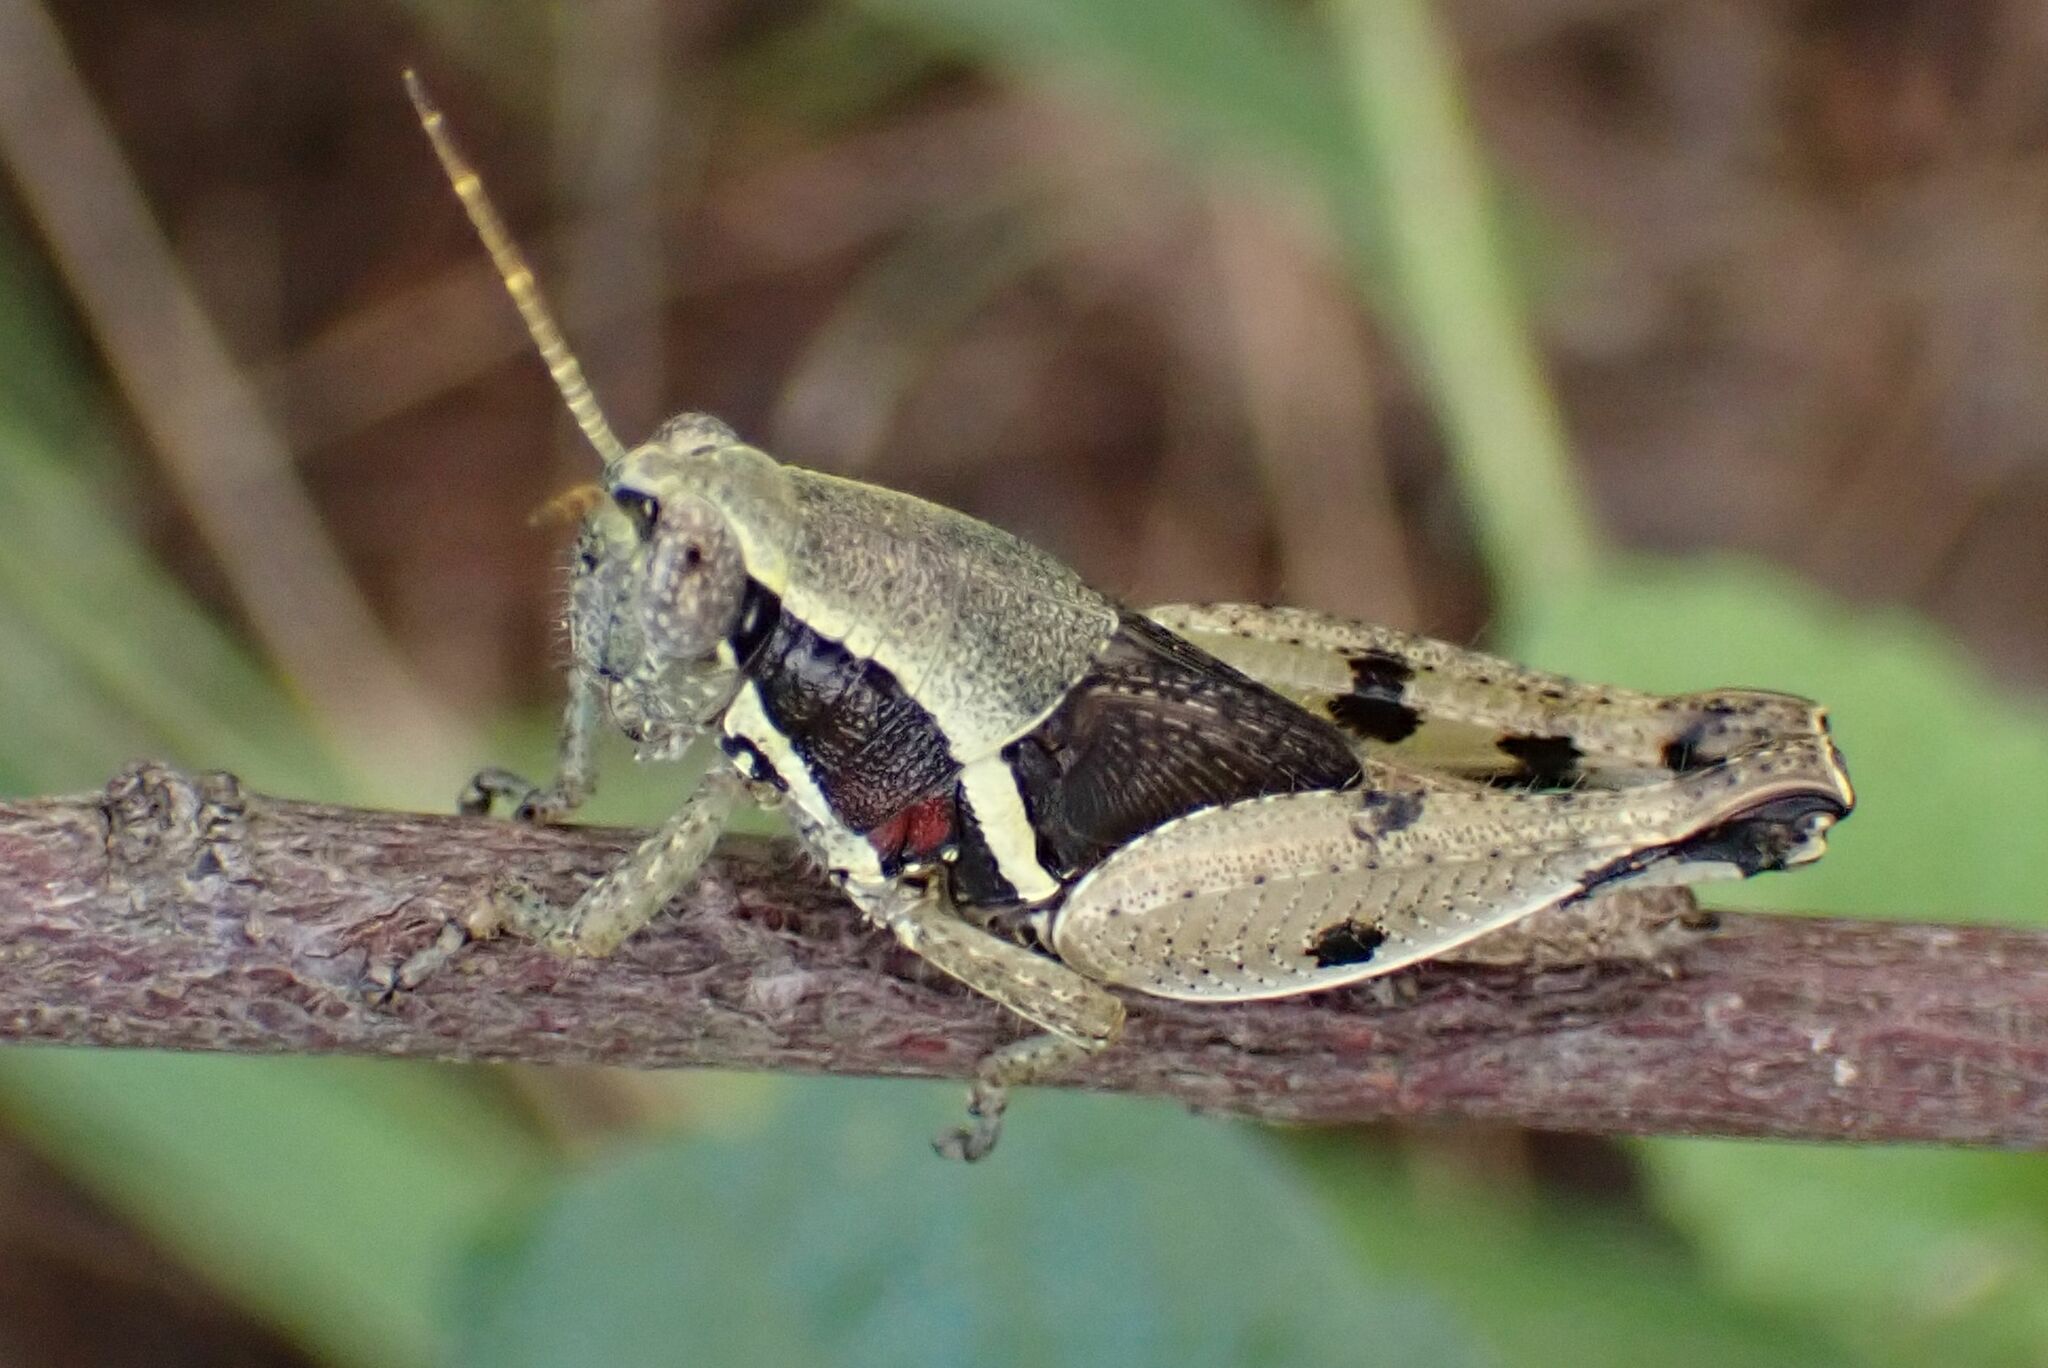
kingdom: Animalia
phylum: Arthropoda
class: Insecta
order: Orthoptera
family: Acrididae
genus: Phaeocatantops
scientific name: Phaeocatantops sulphureus
